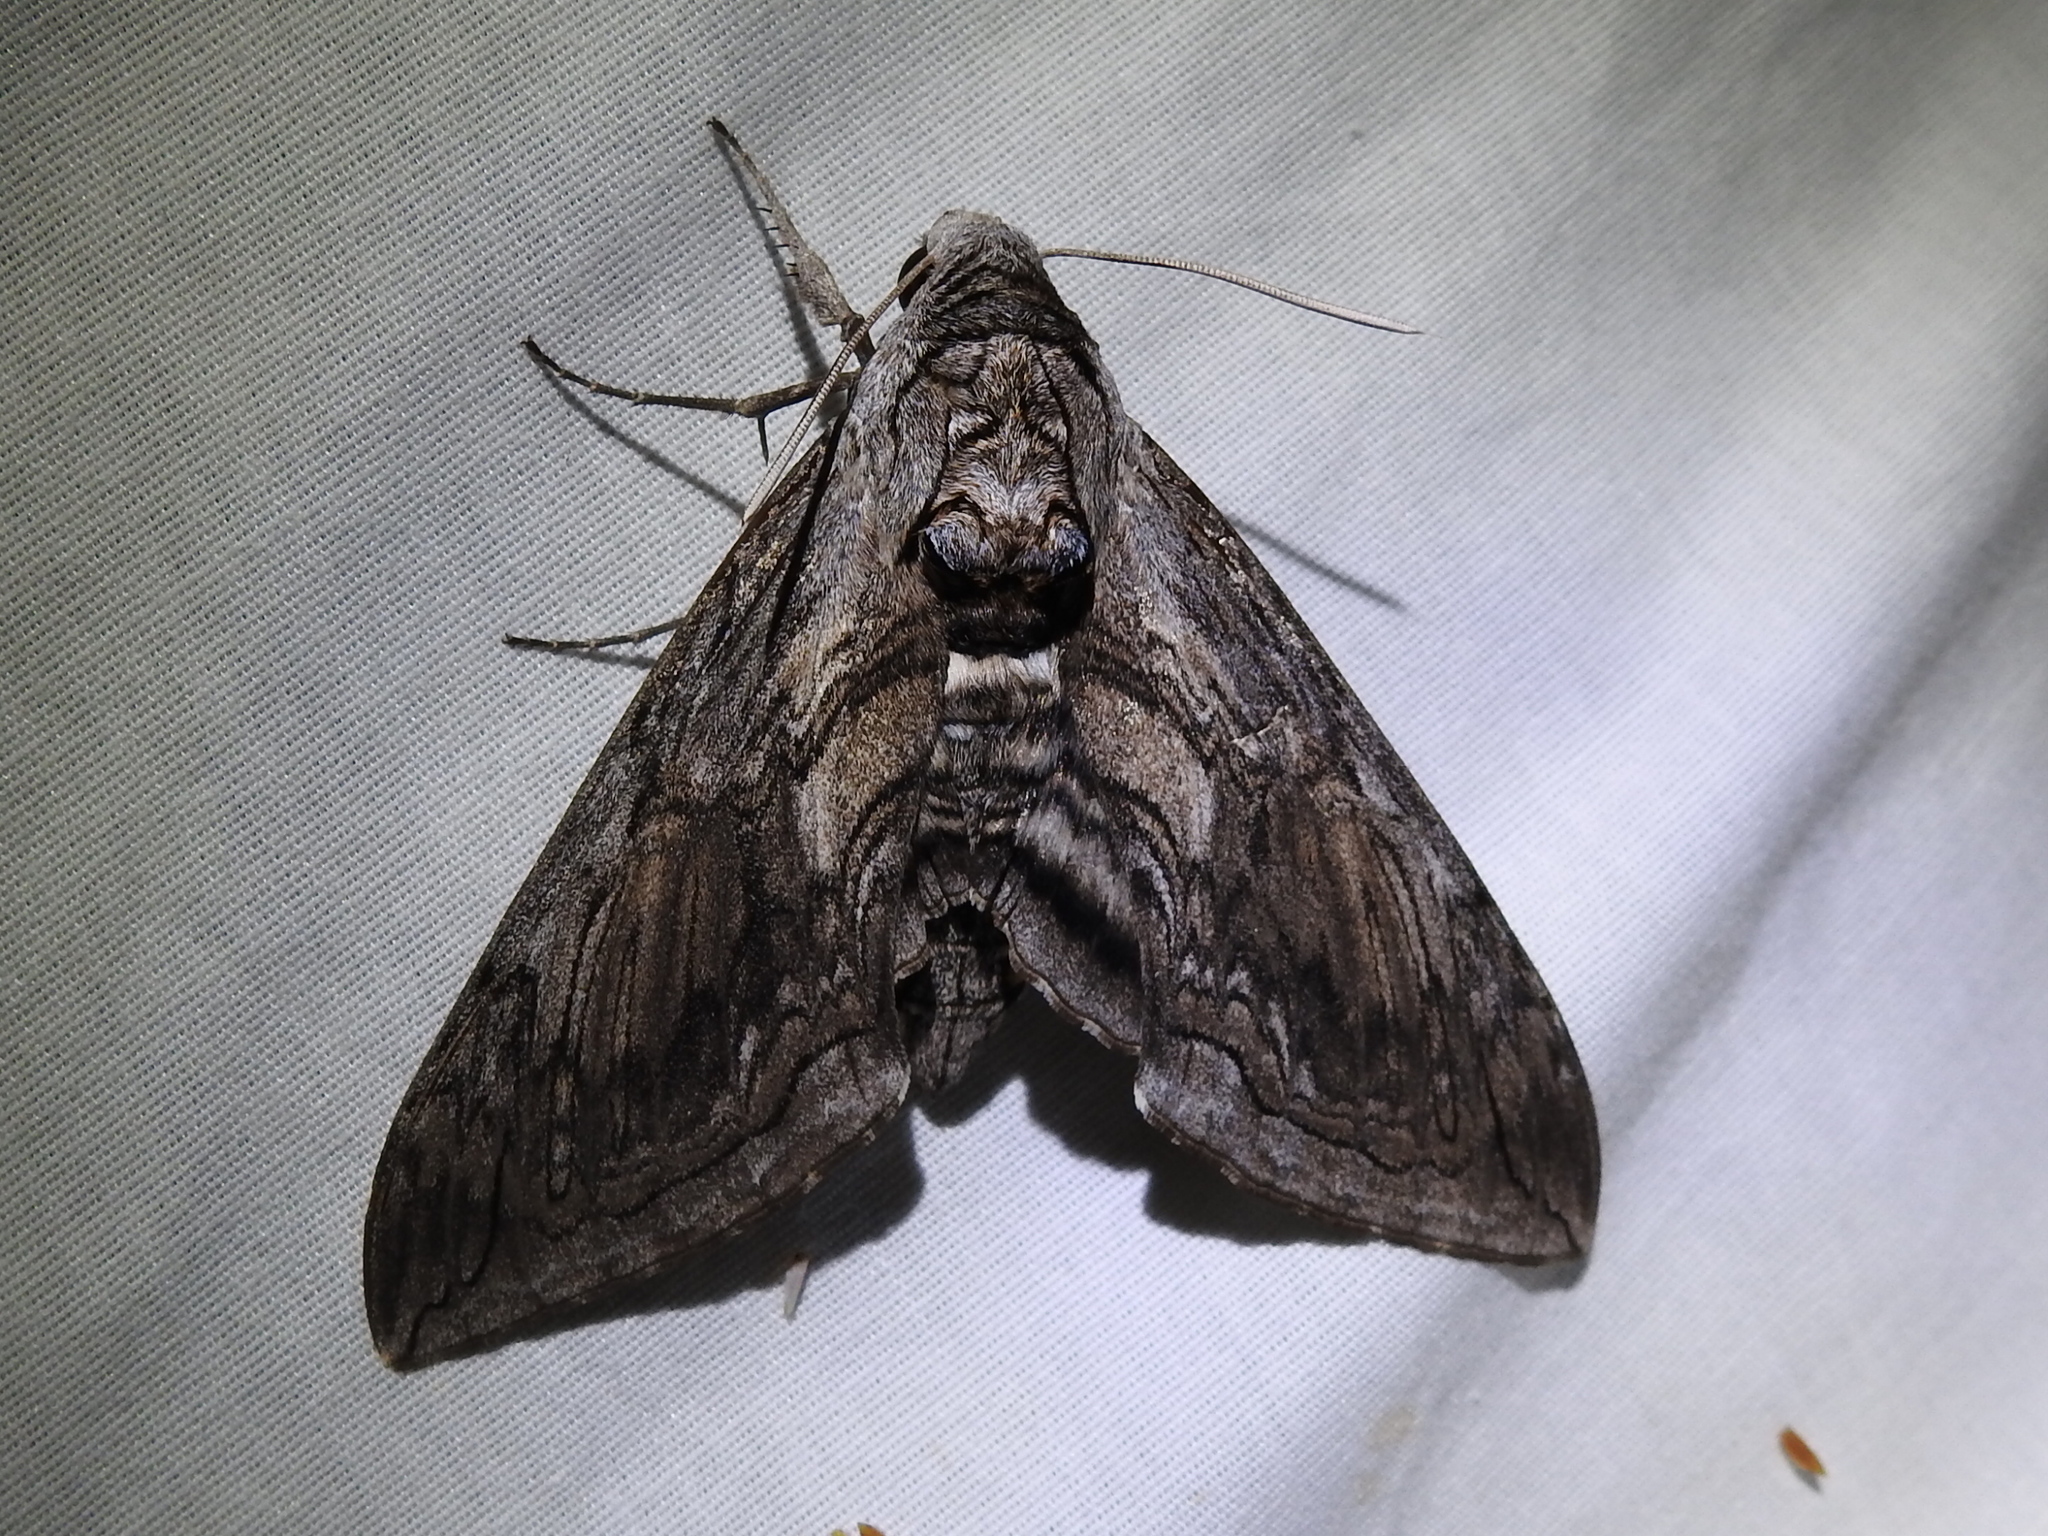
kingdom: Animalia
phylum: Arthropoda
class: Insecta
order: Lepidoptera
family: Sphingidae
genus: Manduca
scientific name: Manduca quinquemaculatus
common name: Five-spotted hawk-moth
